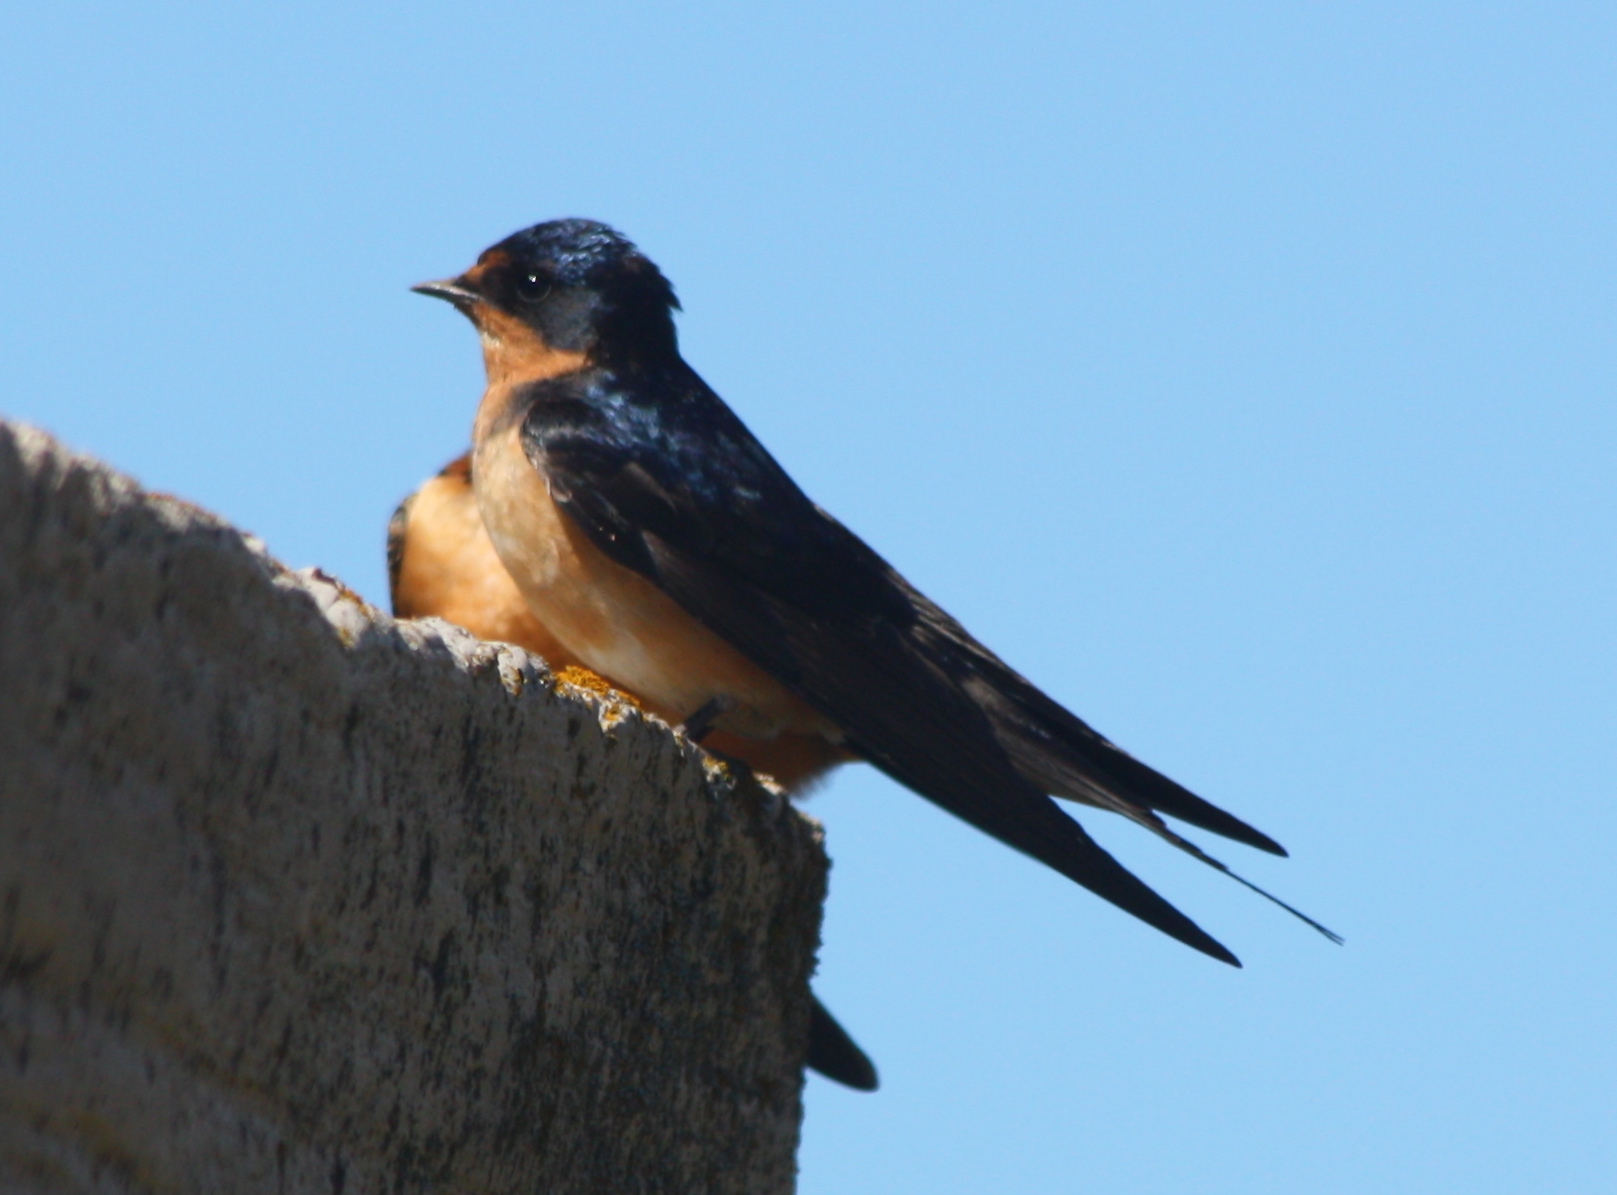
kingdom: Animalia
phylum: Chordata
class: Aves
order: Passeriformes
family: Hirundinidae
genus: Hirundo
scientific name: Hirundo rustica
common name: Barn swallow
